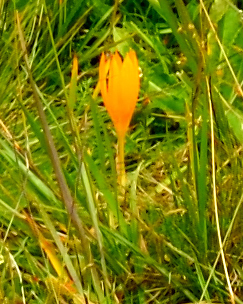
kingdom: Plantae
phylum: Tracheophyta
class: Liliopsida
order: Asparagales
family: Iridaceae
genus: Crocus
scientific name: Crocus scharojanii
